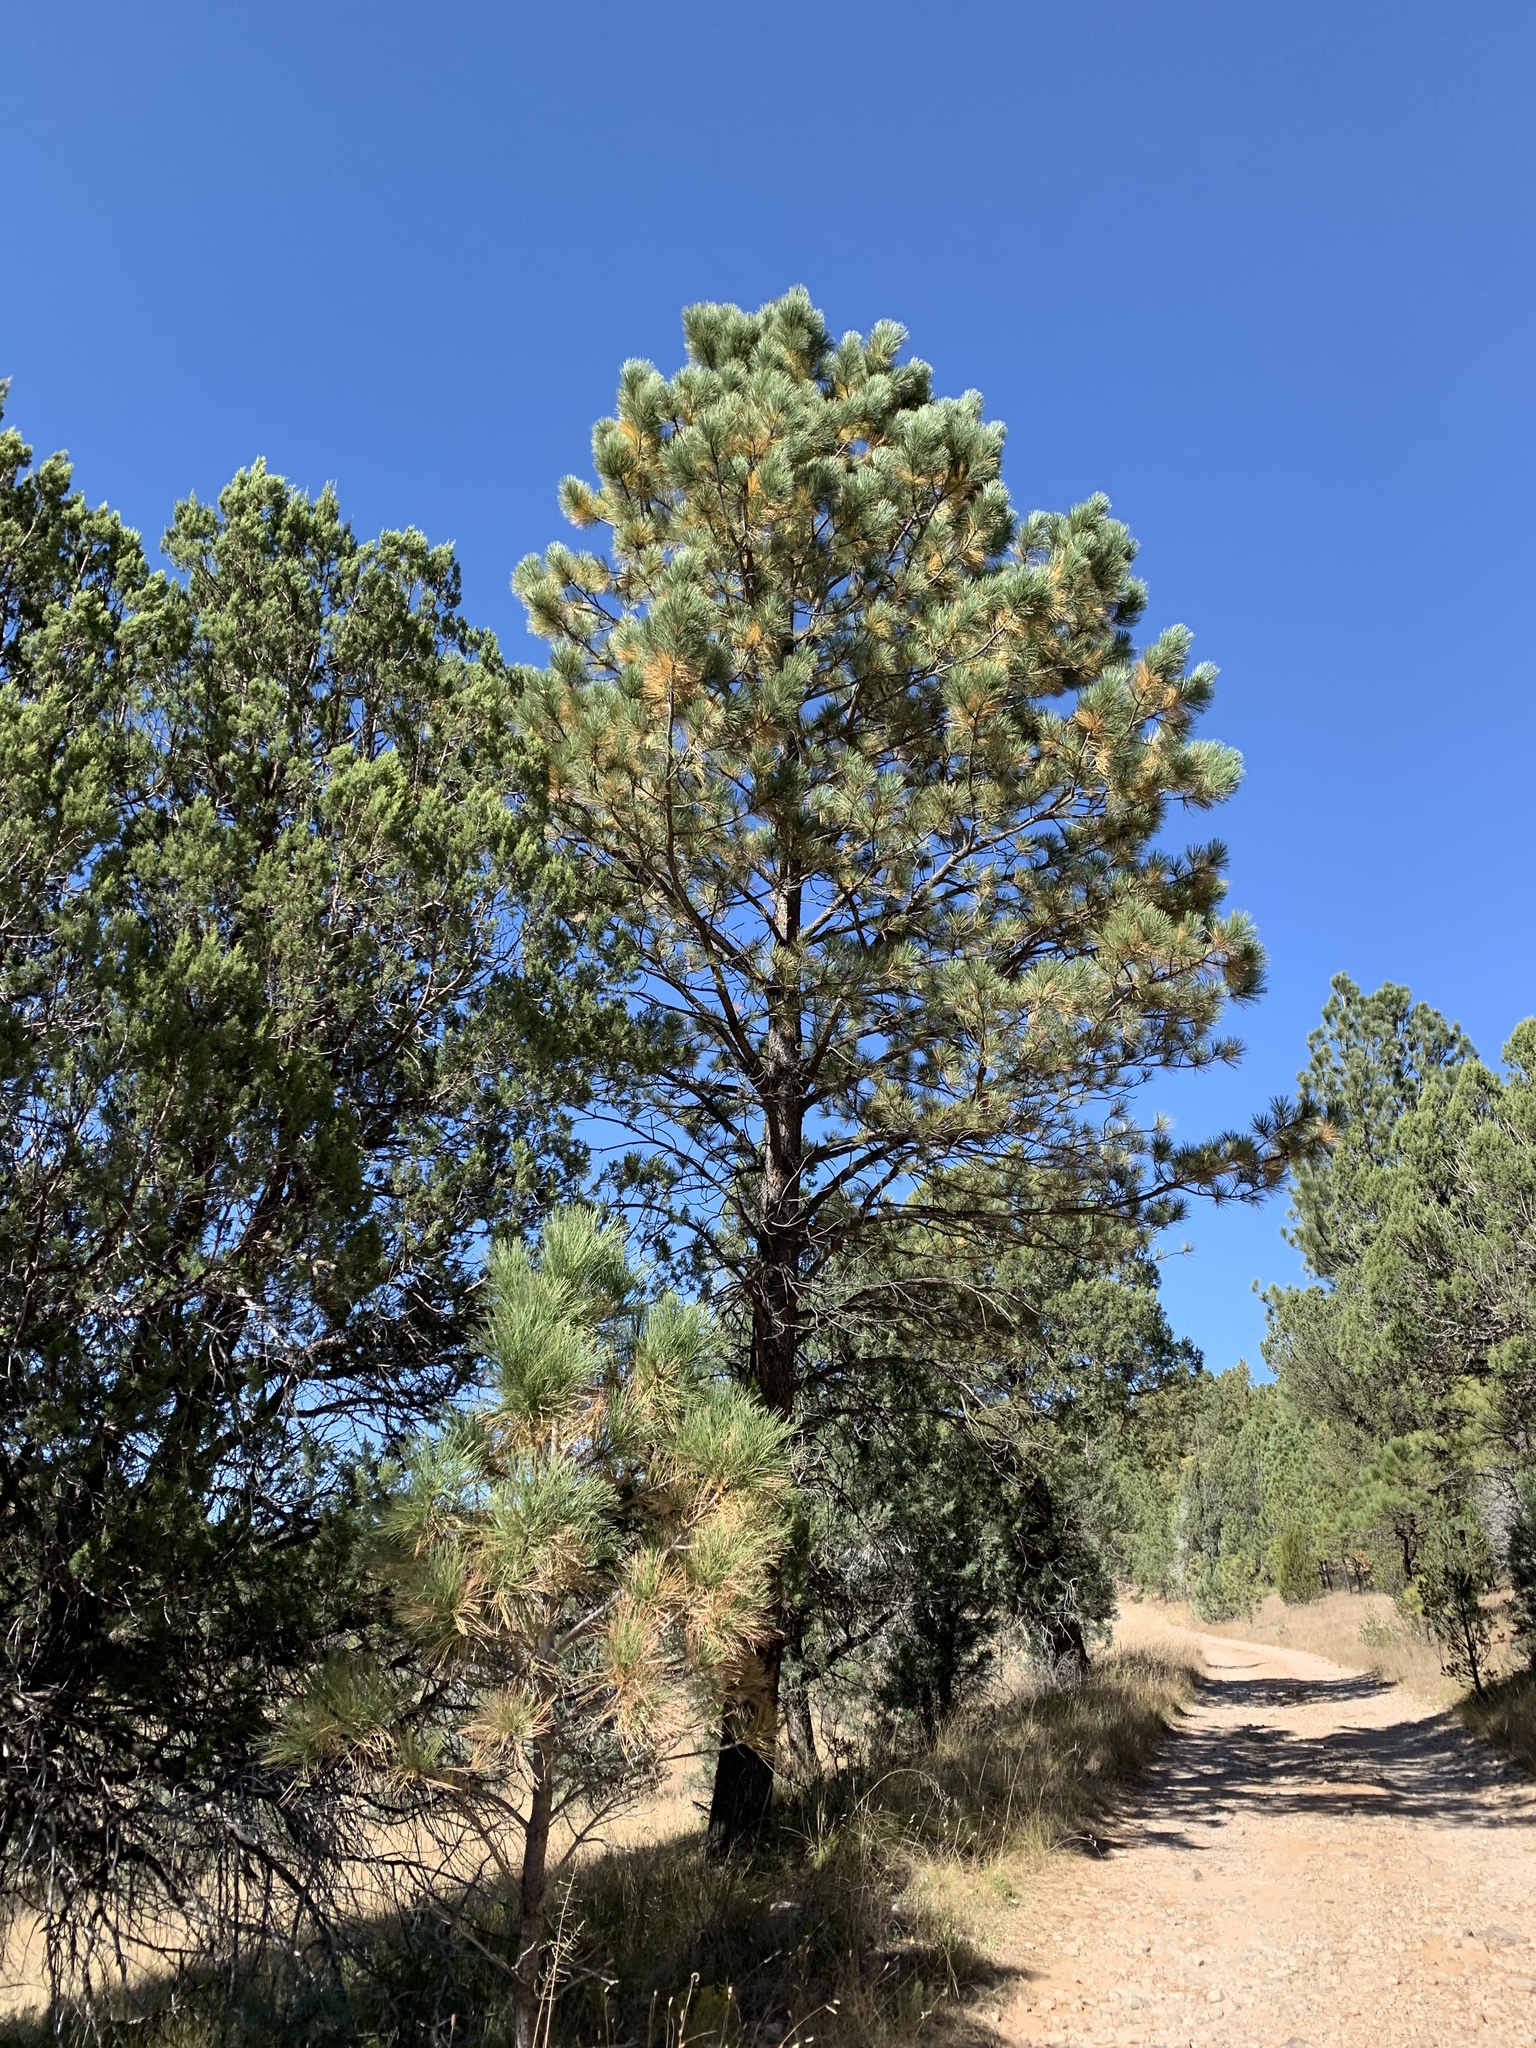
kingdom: Plantae
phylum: Tracheophyta
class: Pinopsida
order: Pinales
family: Pinaceae
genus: Pinus
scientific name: Pinus ponderosa
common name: Western yellow-pine
